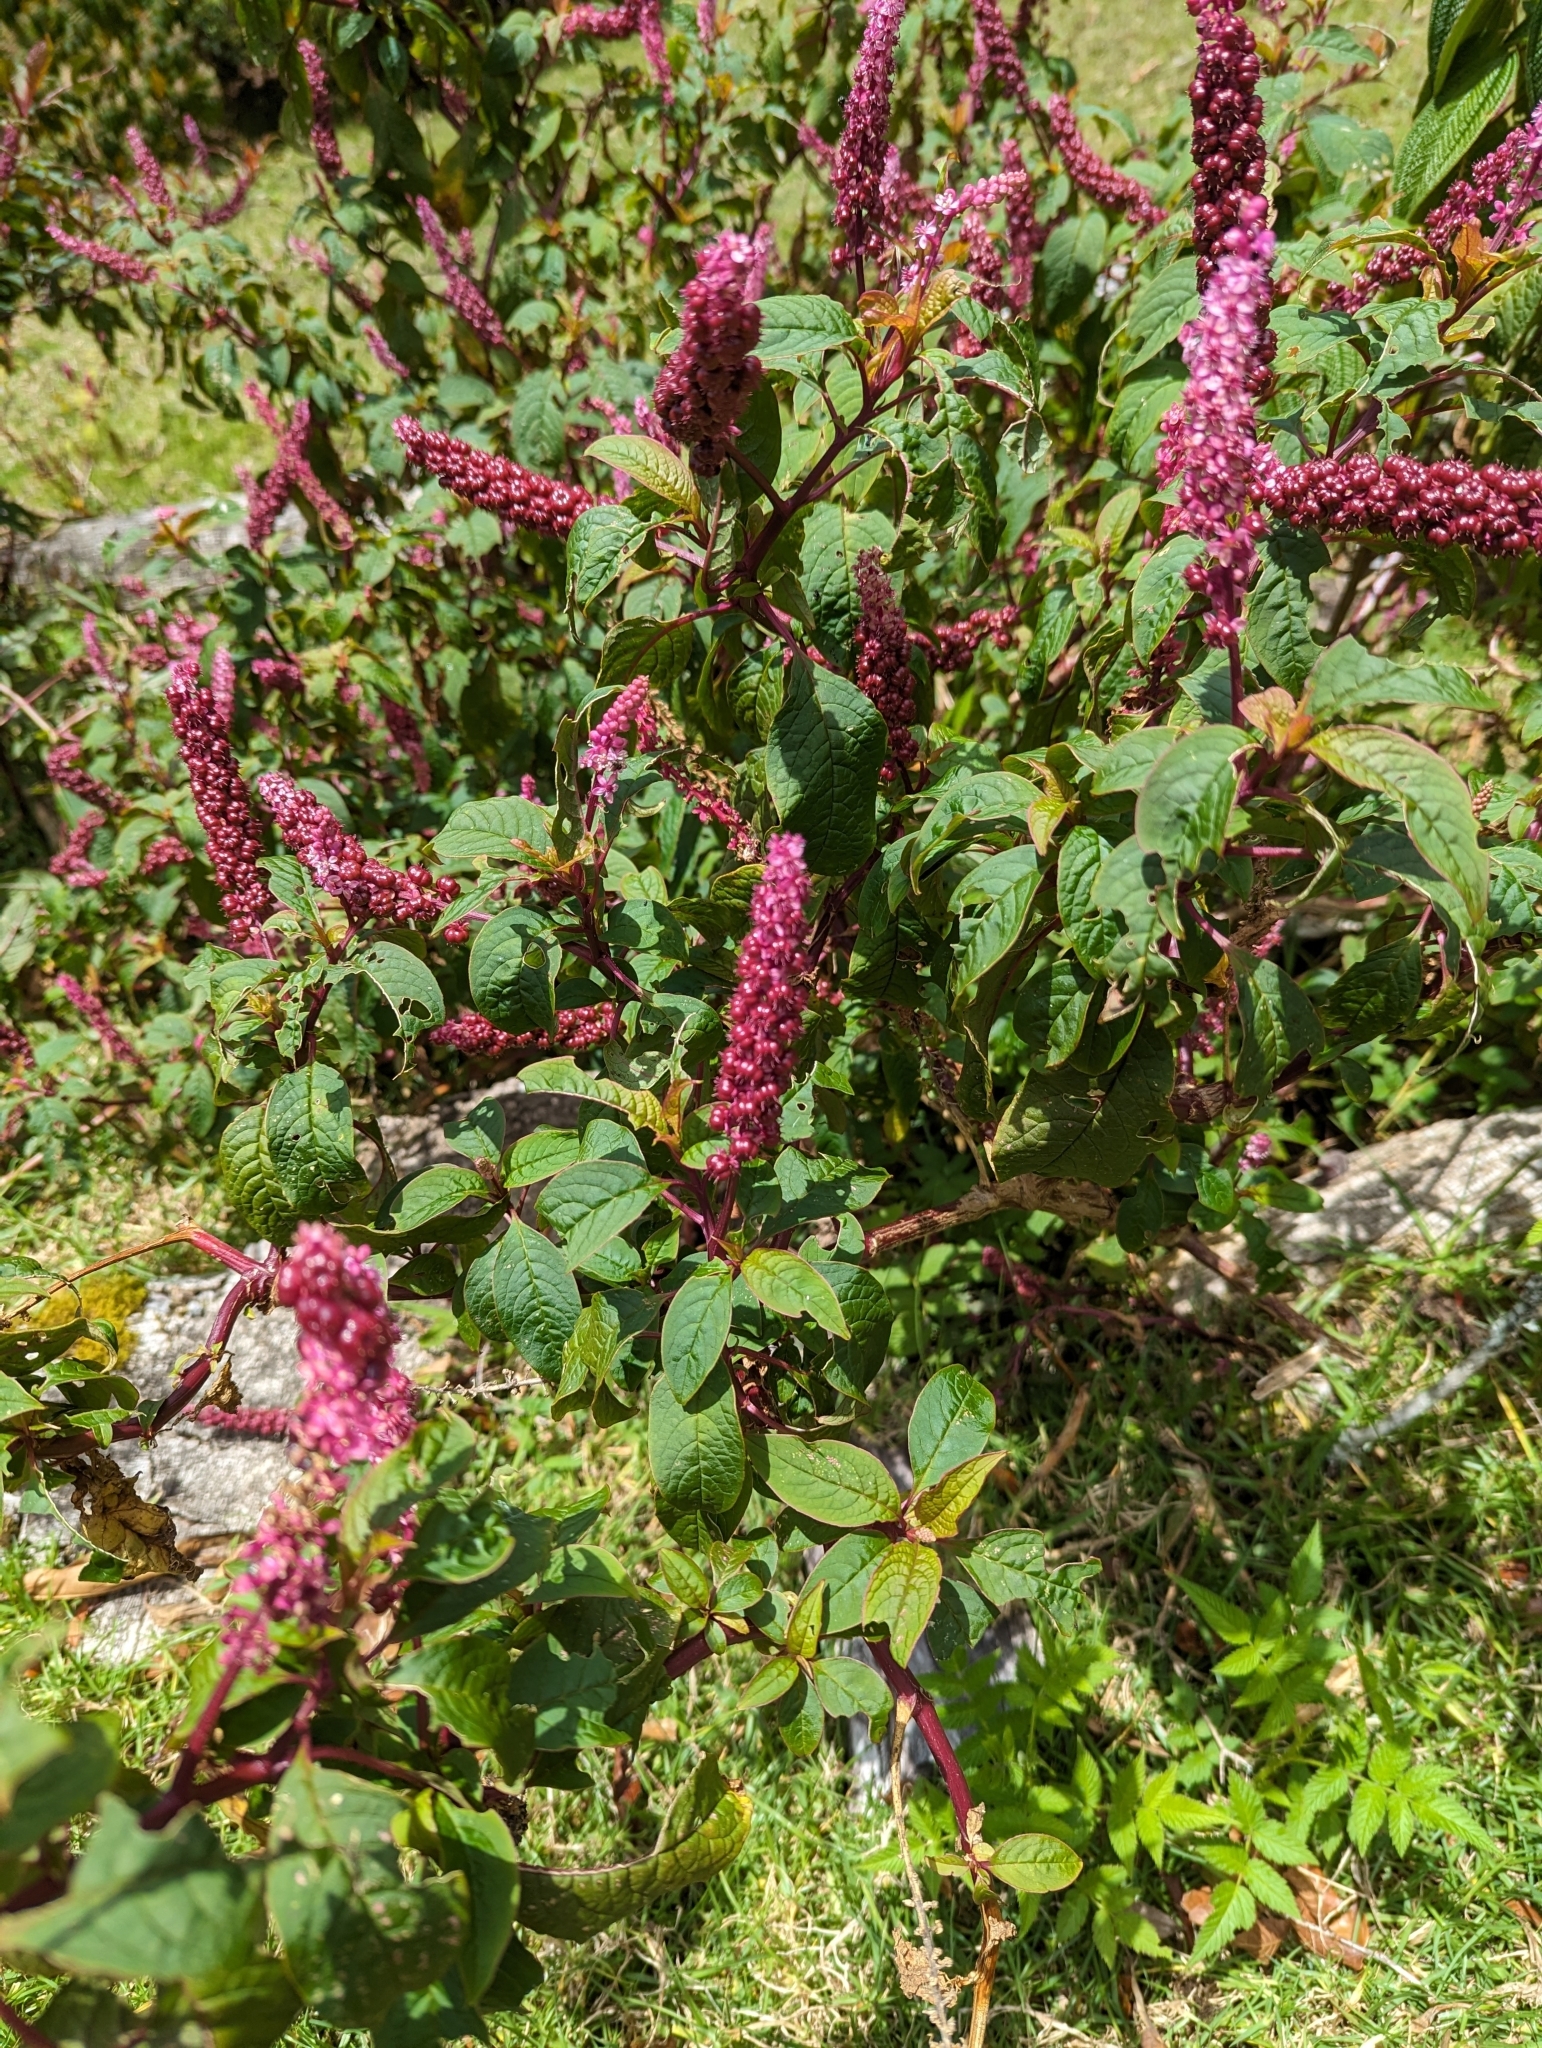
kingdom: Plantae
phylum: Tracheophyta
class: Magnoliopsida
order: Caryophyllales
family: Phytolaccaceae
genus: Phytolacca
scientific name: Phytolacca rugosa
